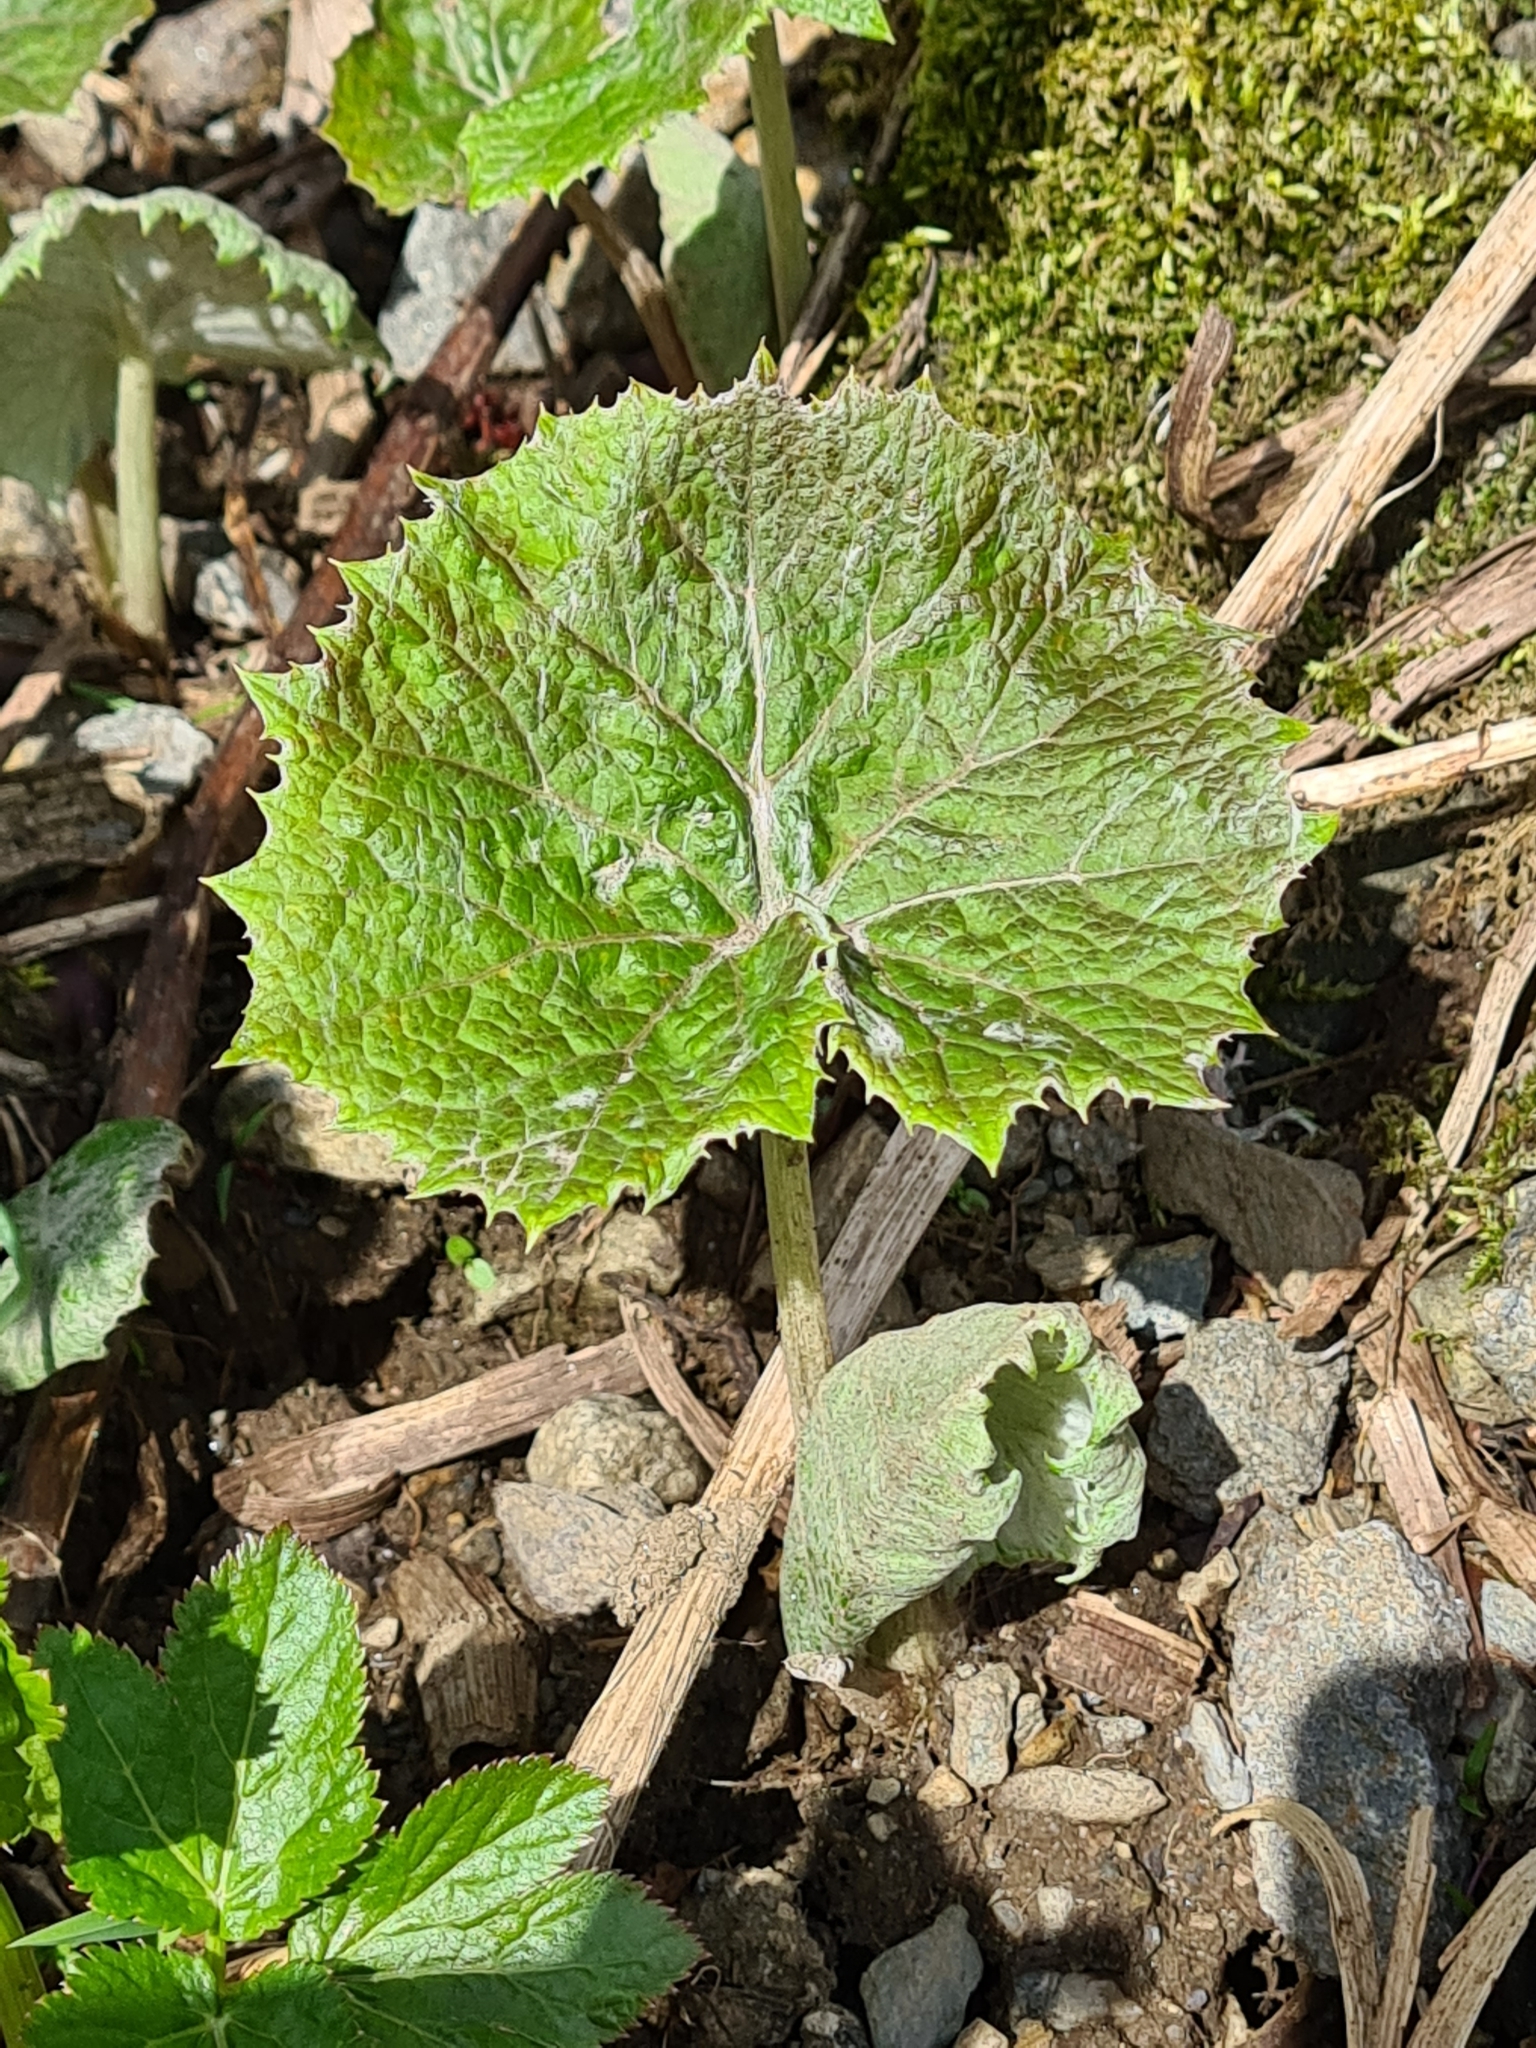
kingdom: Plantae
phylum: Tracheophyta
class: Magnoliopsida
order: Asterales
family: Asteraceae
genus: Petasites
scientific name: Petasites albus
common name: White butterbur
